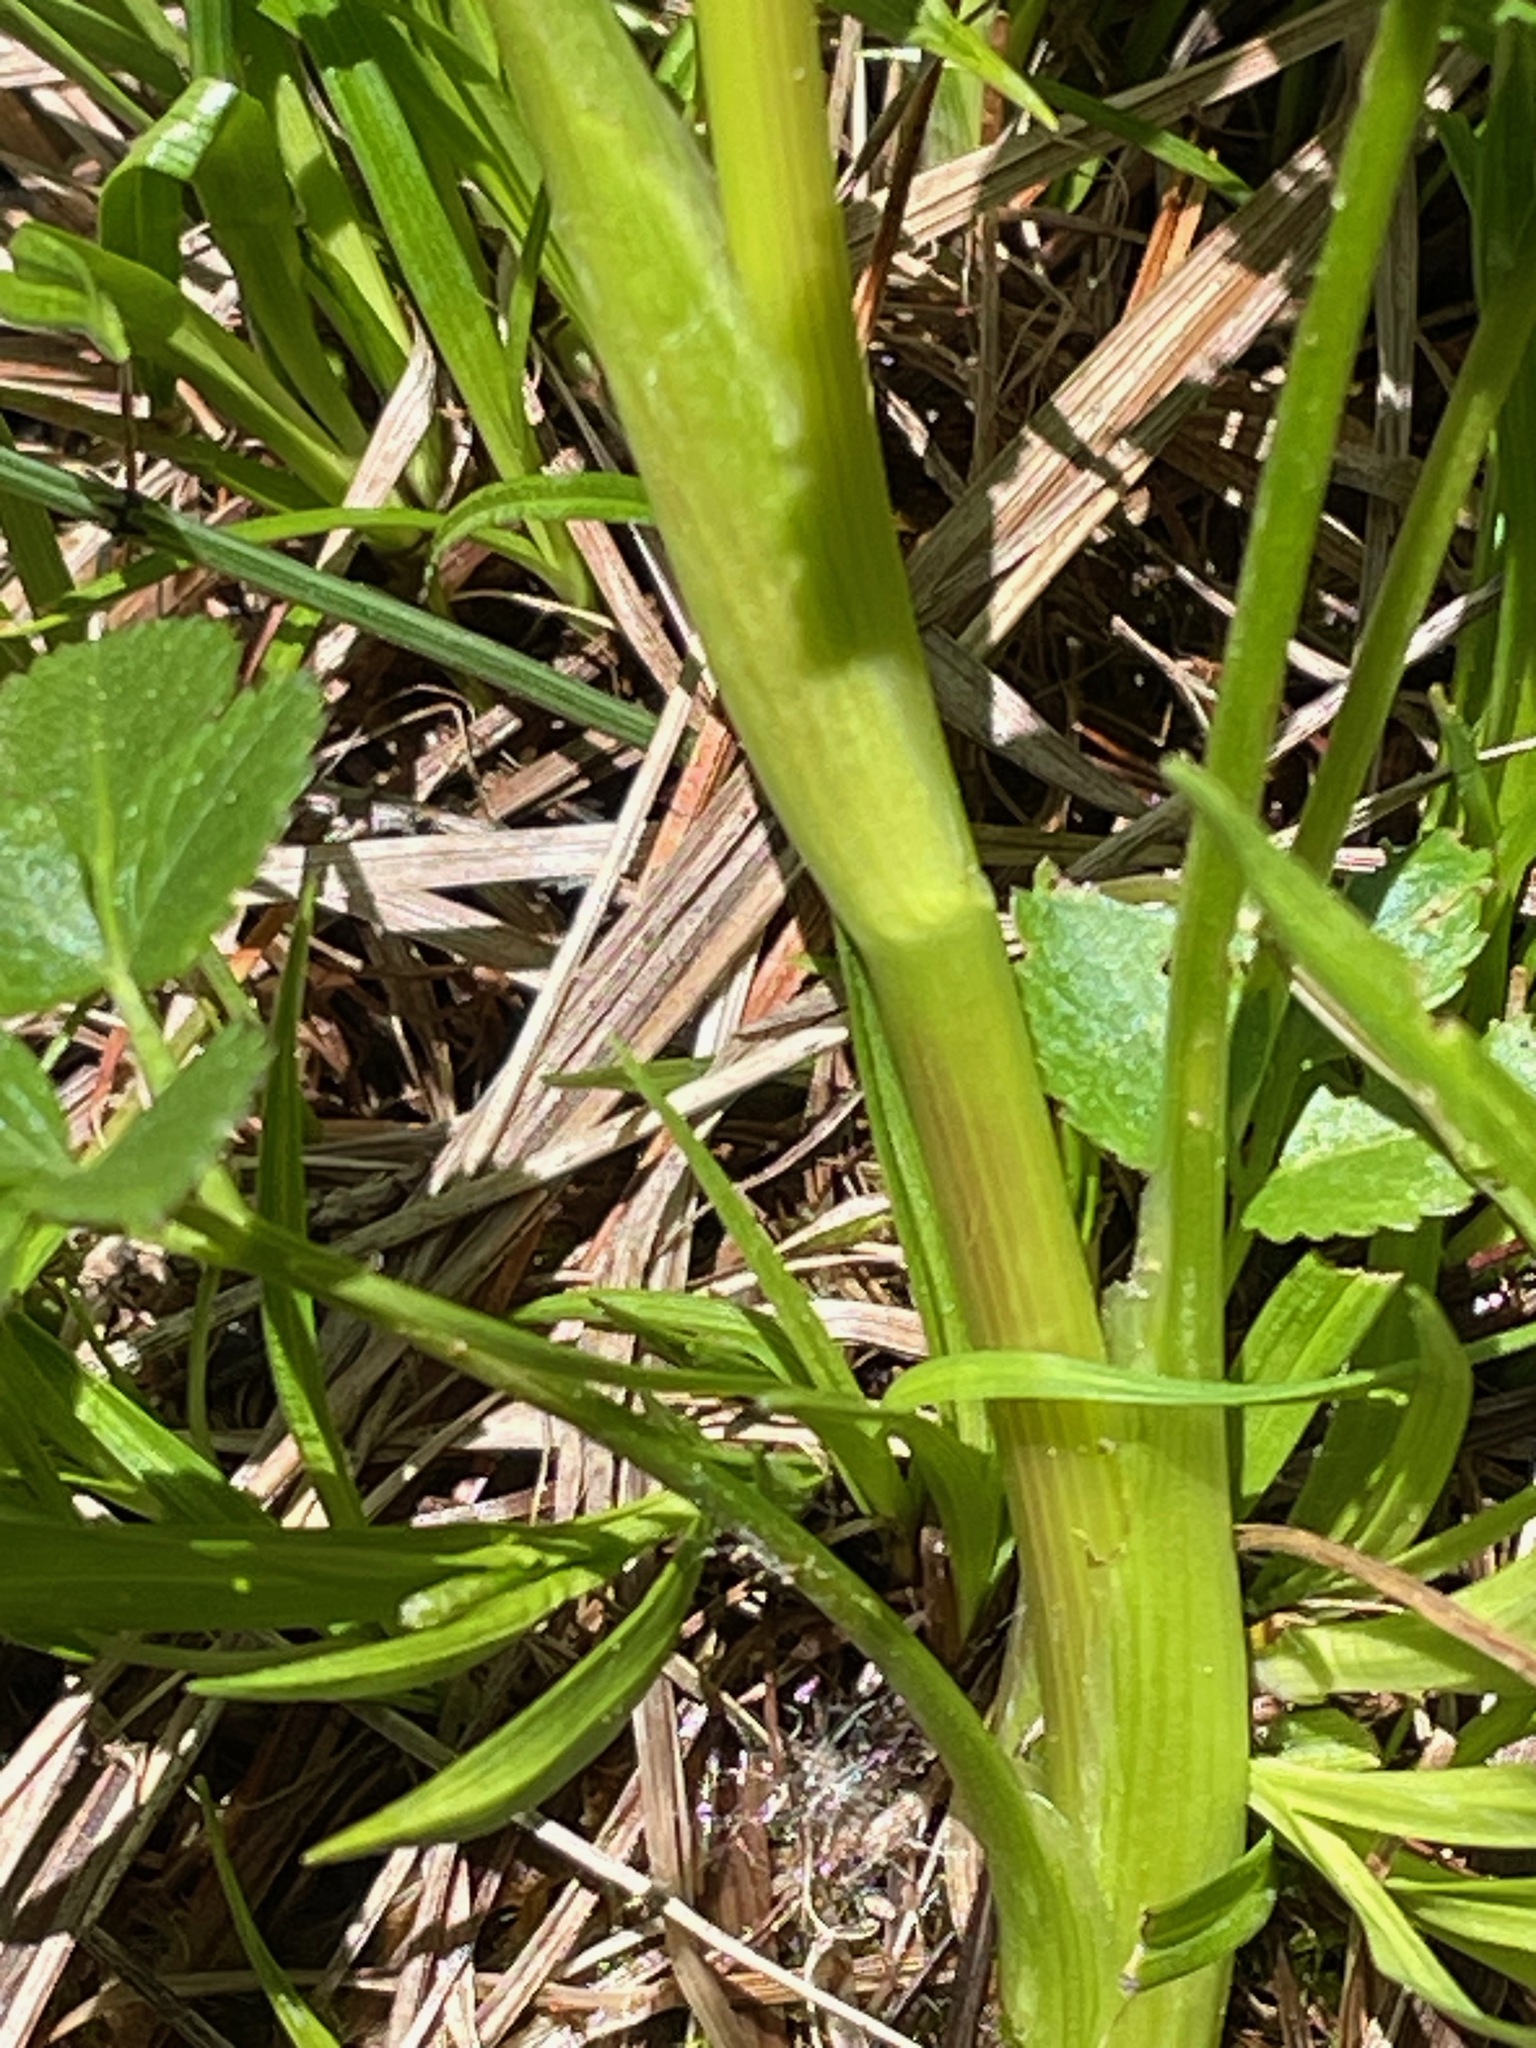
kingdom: Plantae
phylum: Tracheophyta
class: Magnoliopsida
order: Apiales
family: Apiaceae
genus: Zizia
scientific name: Zizia aurea
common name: Golden alexanders
